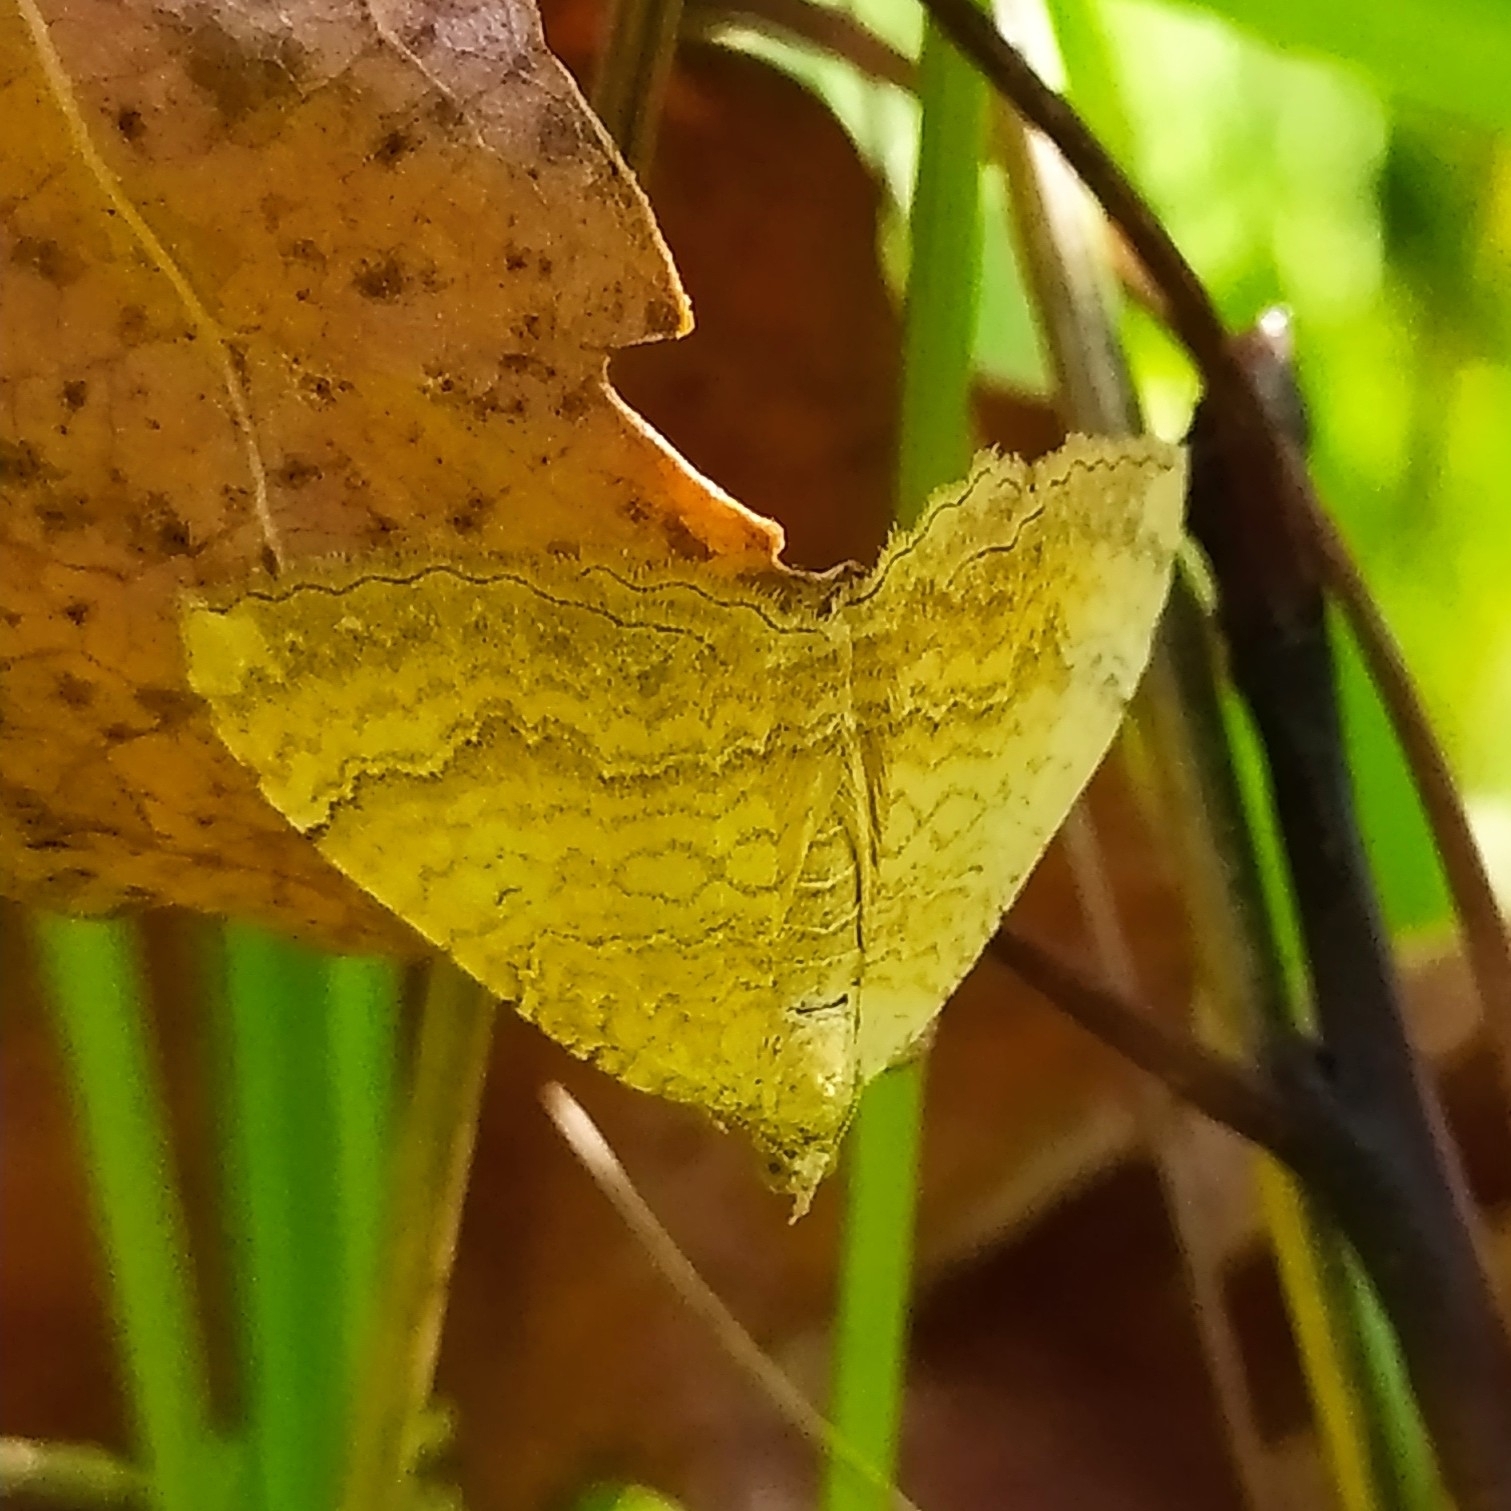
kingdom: Animalia
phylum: Arthropoda
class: Insecta
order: Lepidoptera
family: Geometridae
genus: Camptogramma
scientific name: Camptogramma bilineata
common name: Yellow shell
